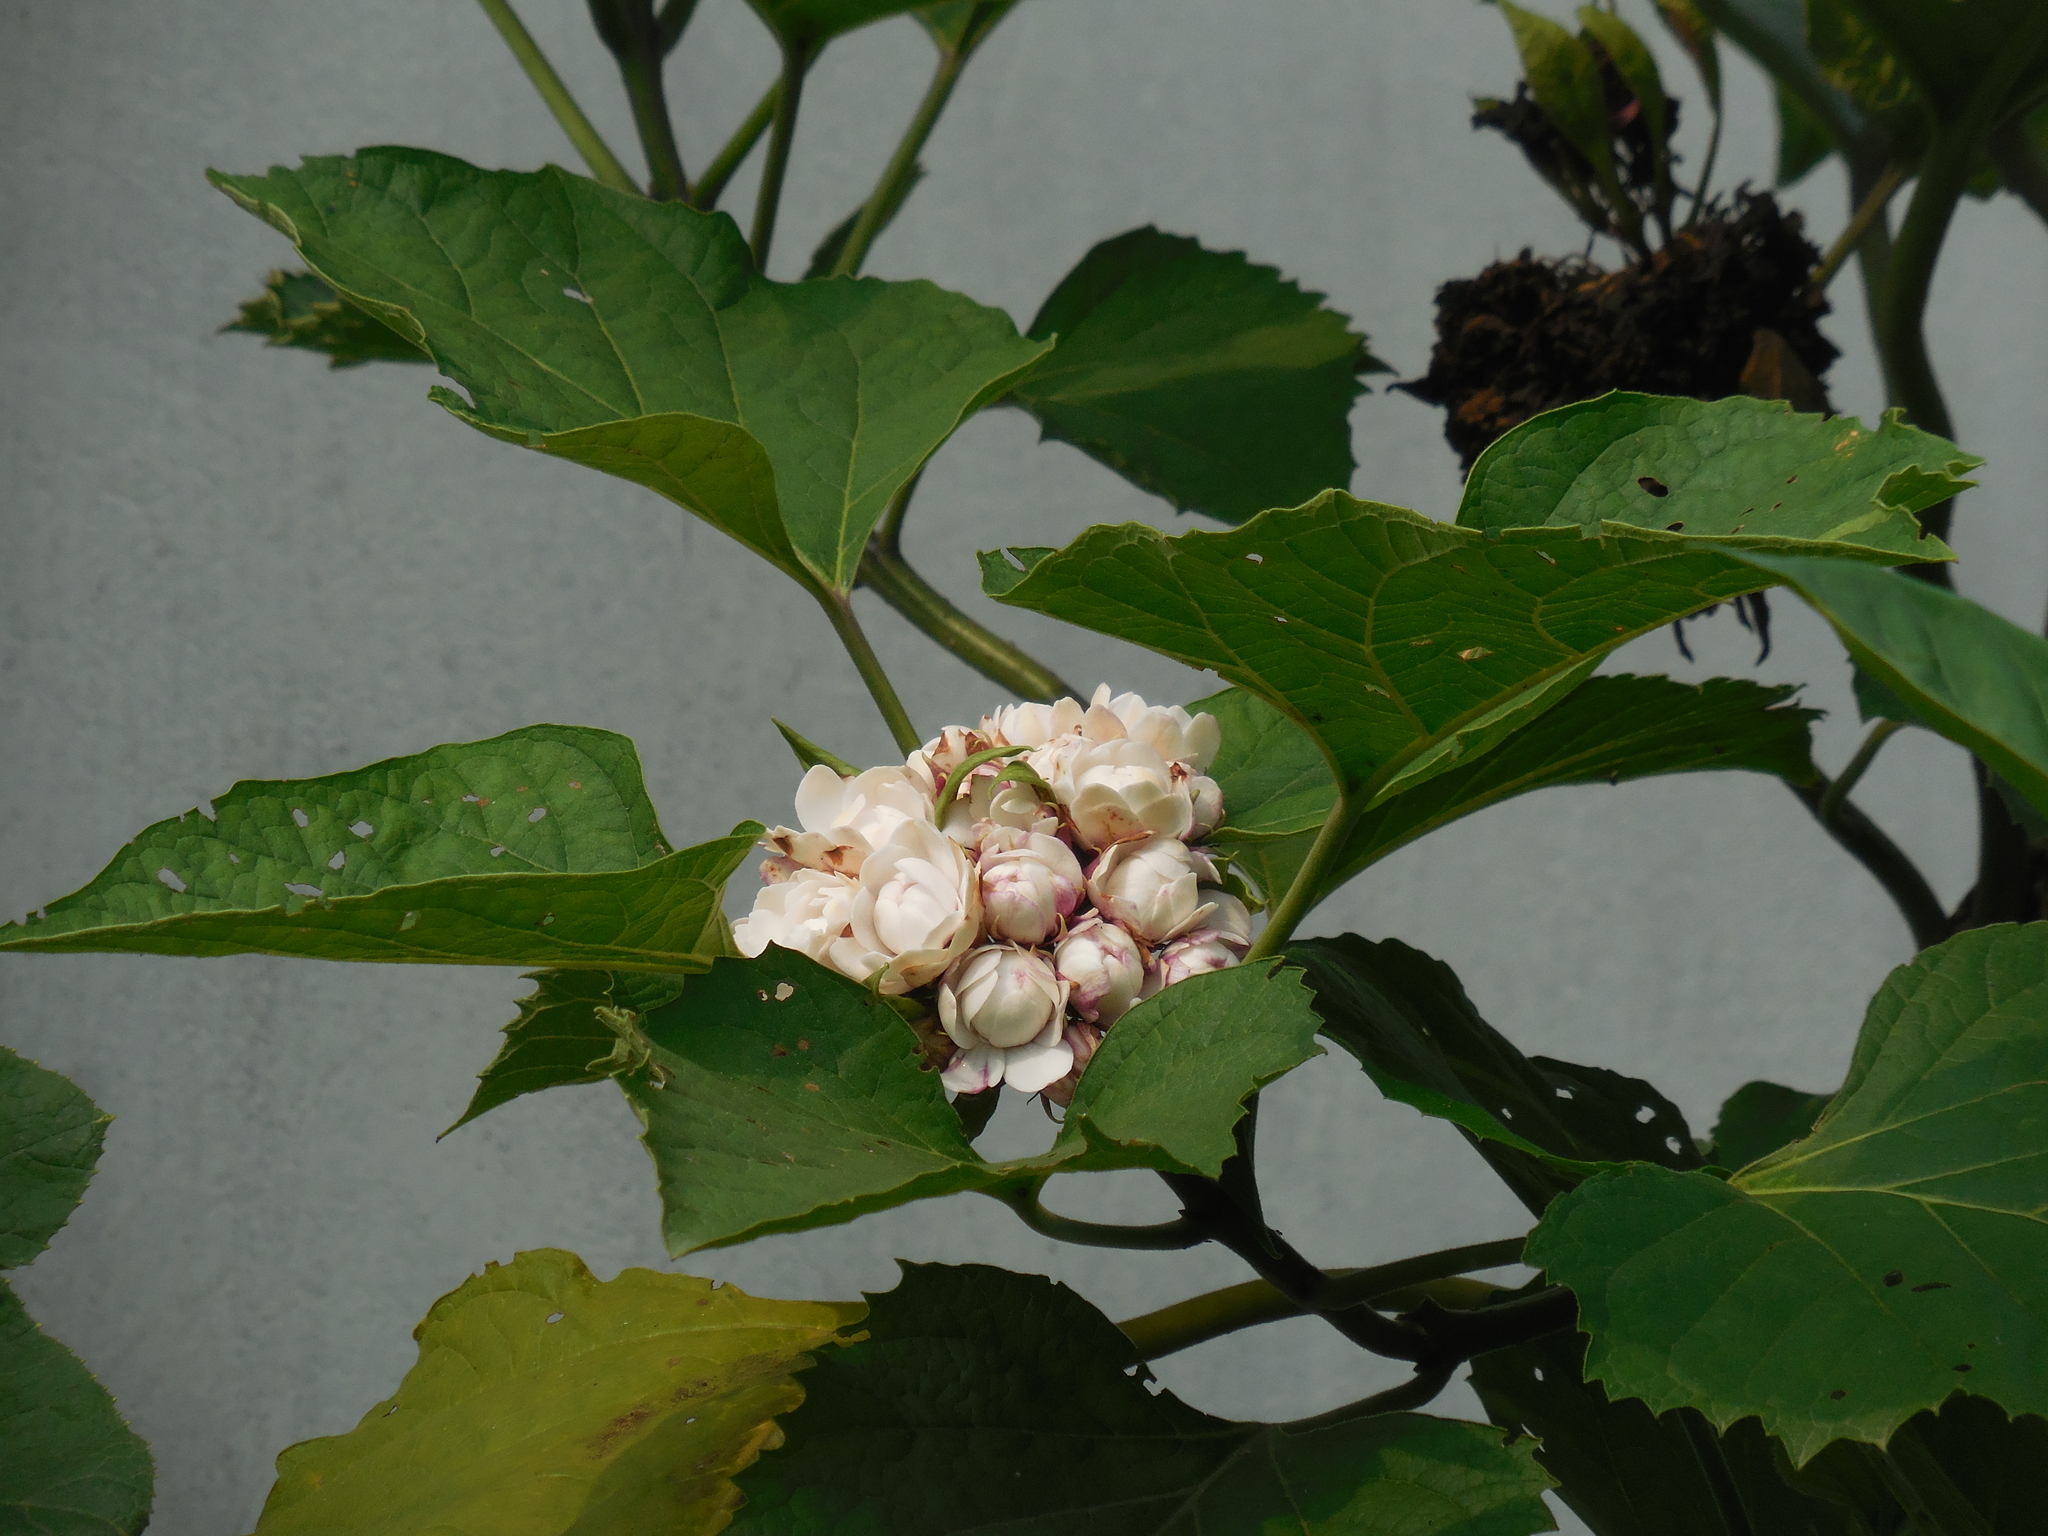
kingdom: Plantae
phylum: Tracheophyta
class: Magnoliopsida
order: Lamiales
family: Lamiaceae
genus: Clerodendrum
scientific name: Clerodendrum chinense
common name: Stickbush
